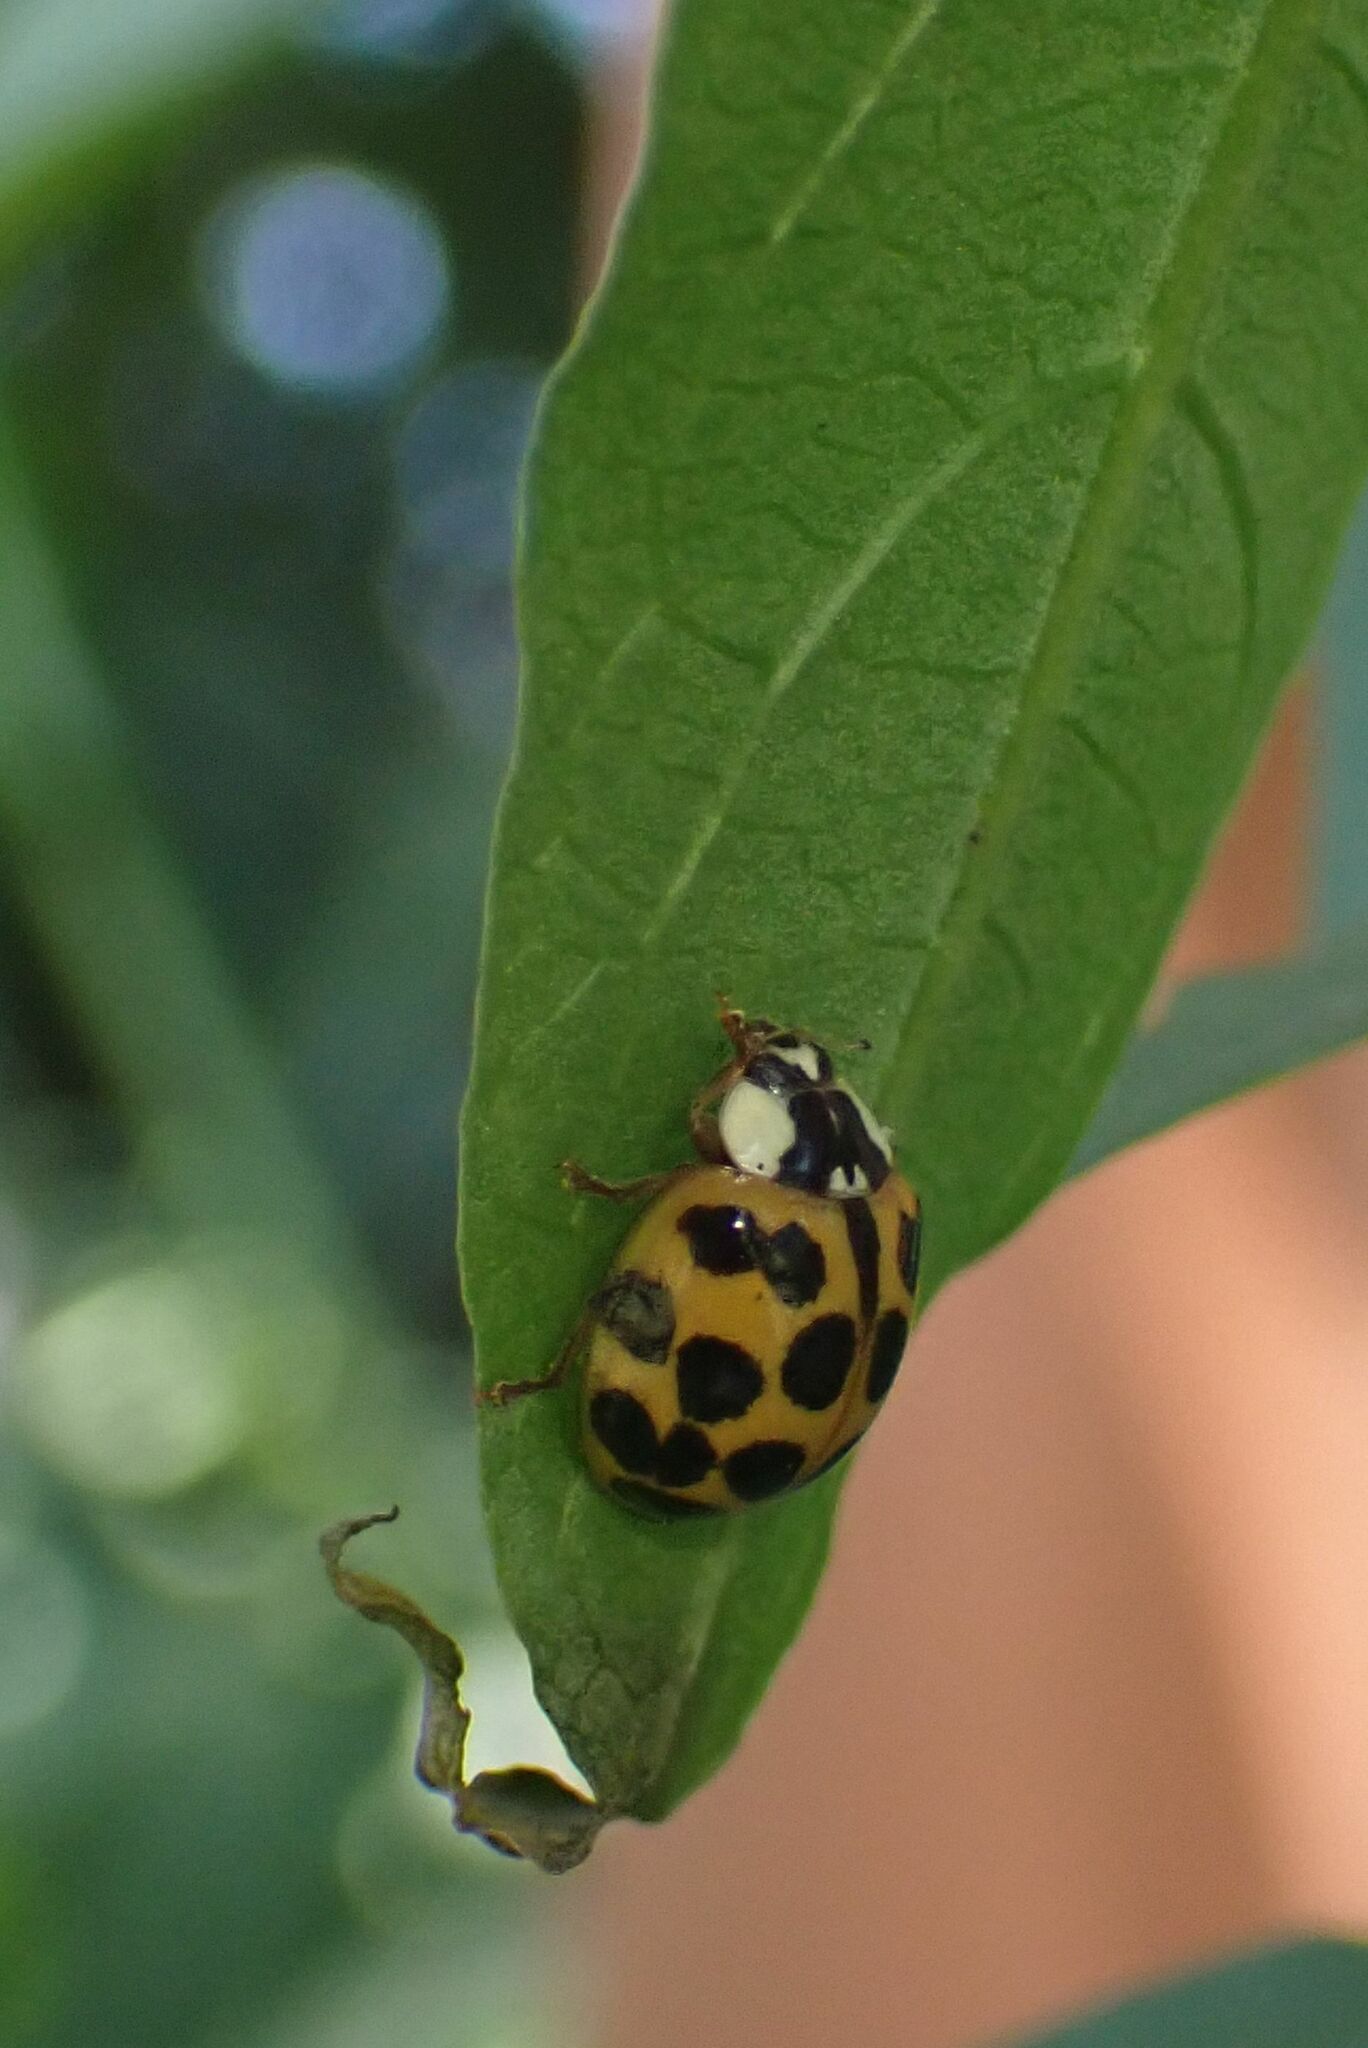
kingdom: Animalia
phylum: Arthropoda
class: Insecta
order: Coleoptera
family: Coccinellidae
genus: Harmonia
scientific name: Harmonia axyridis
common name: Harlequin ladybird
